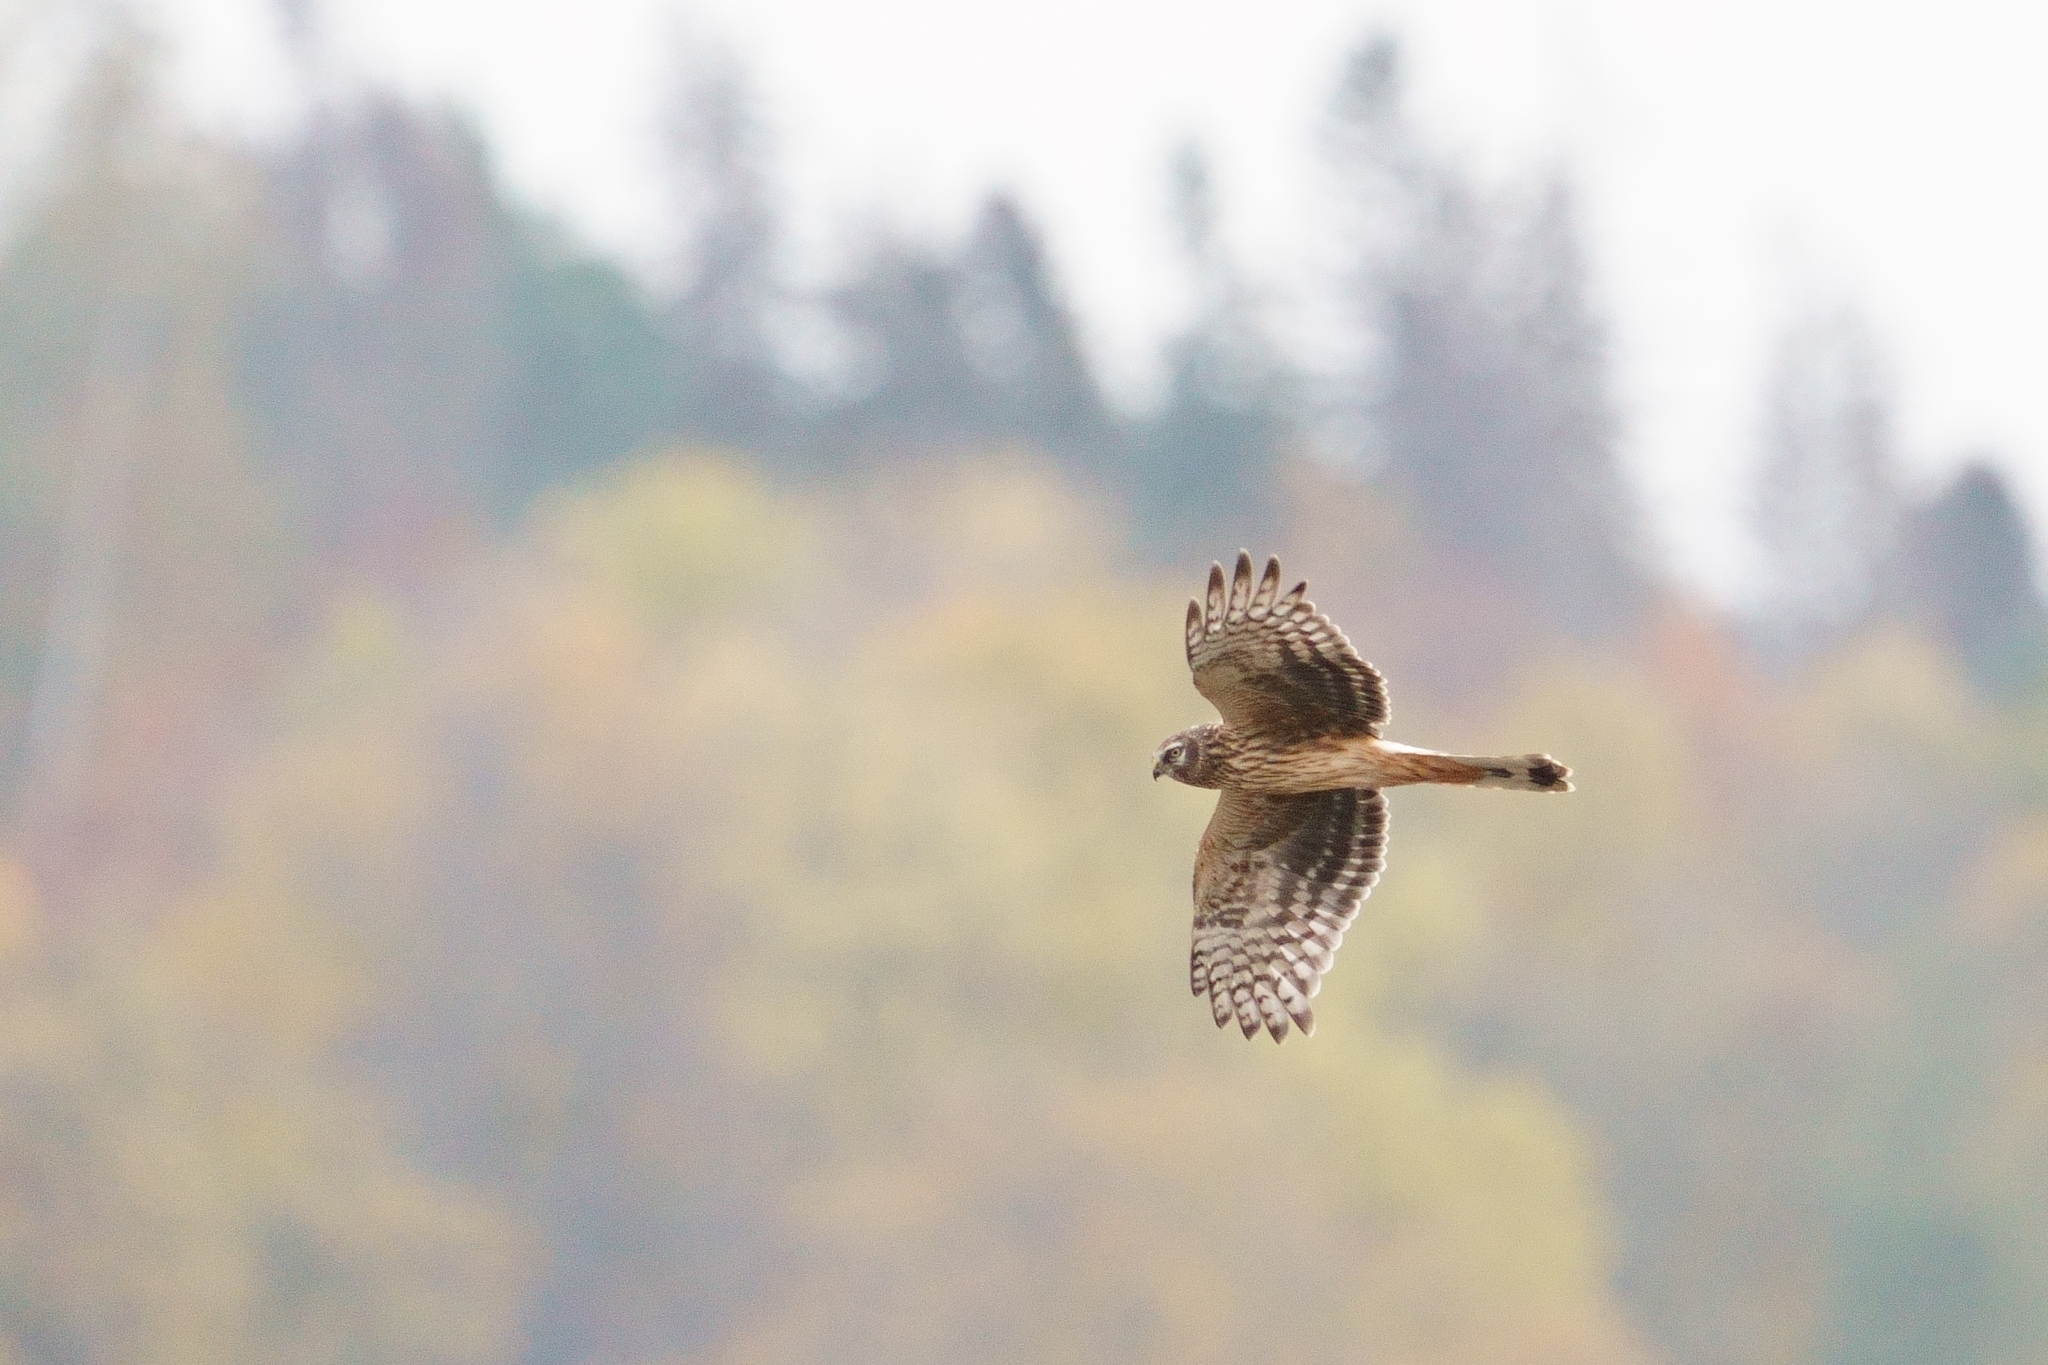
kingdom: Animalia
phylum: Chordata
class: Aves
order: Accipitriformes
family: Accipitridae
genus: Circus
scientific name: Circus cyaneus
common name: Hen harrier
